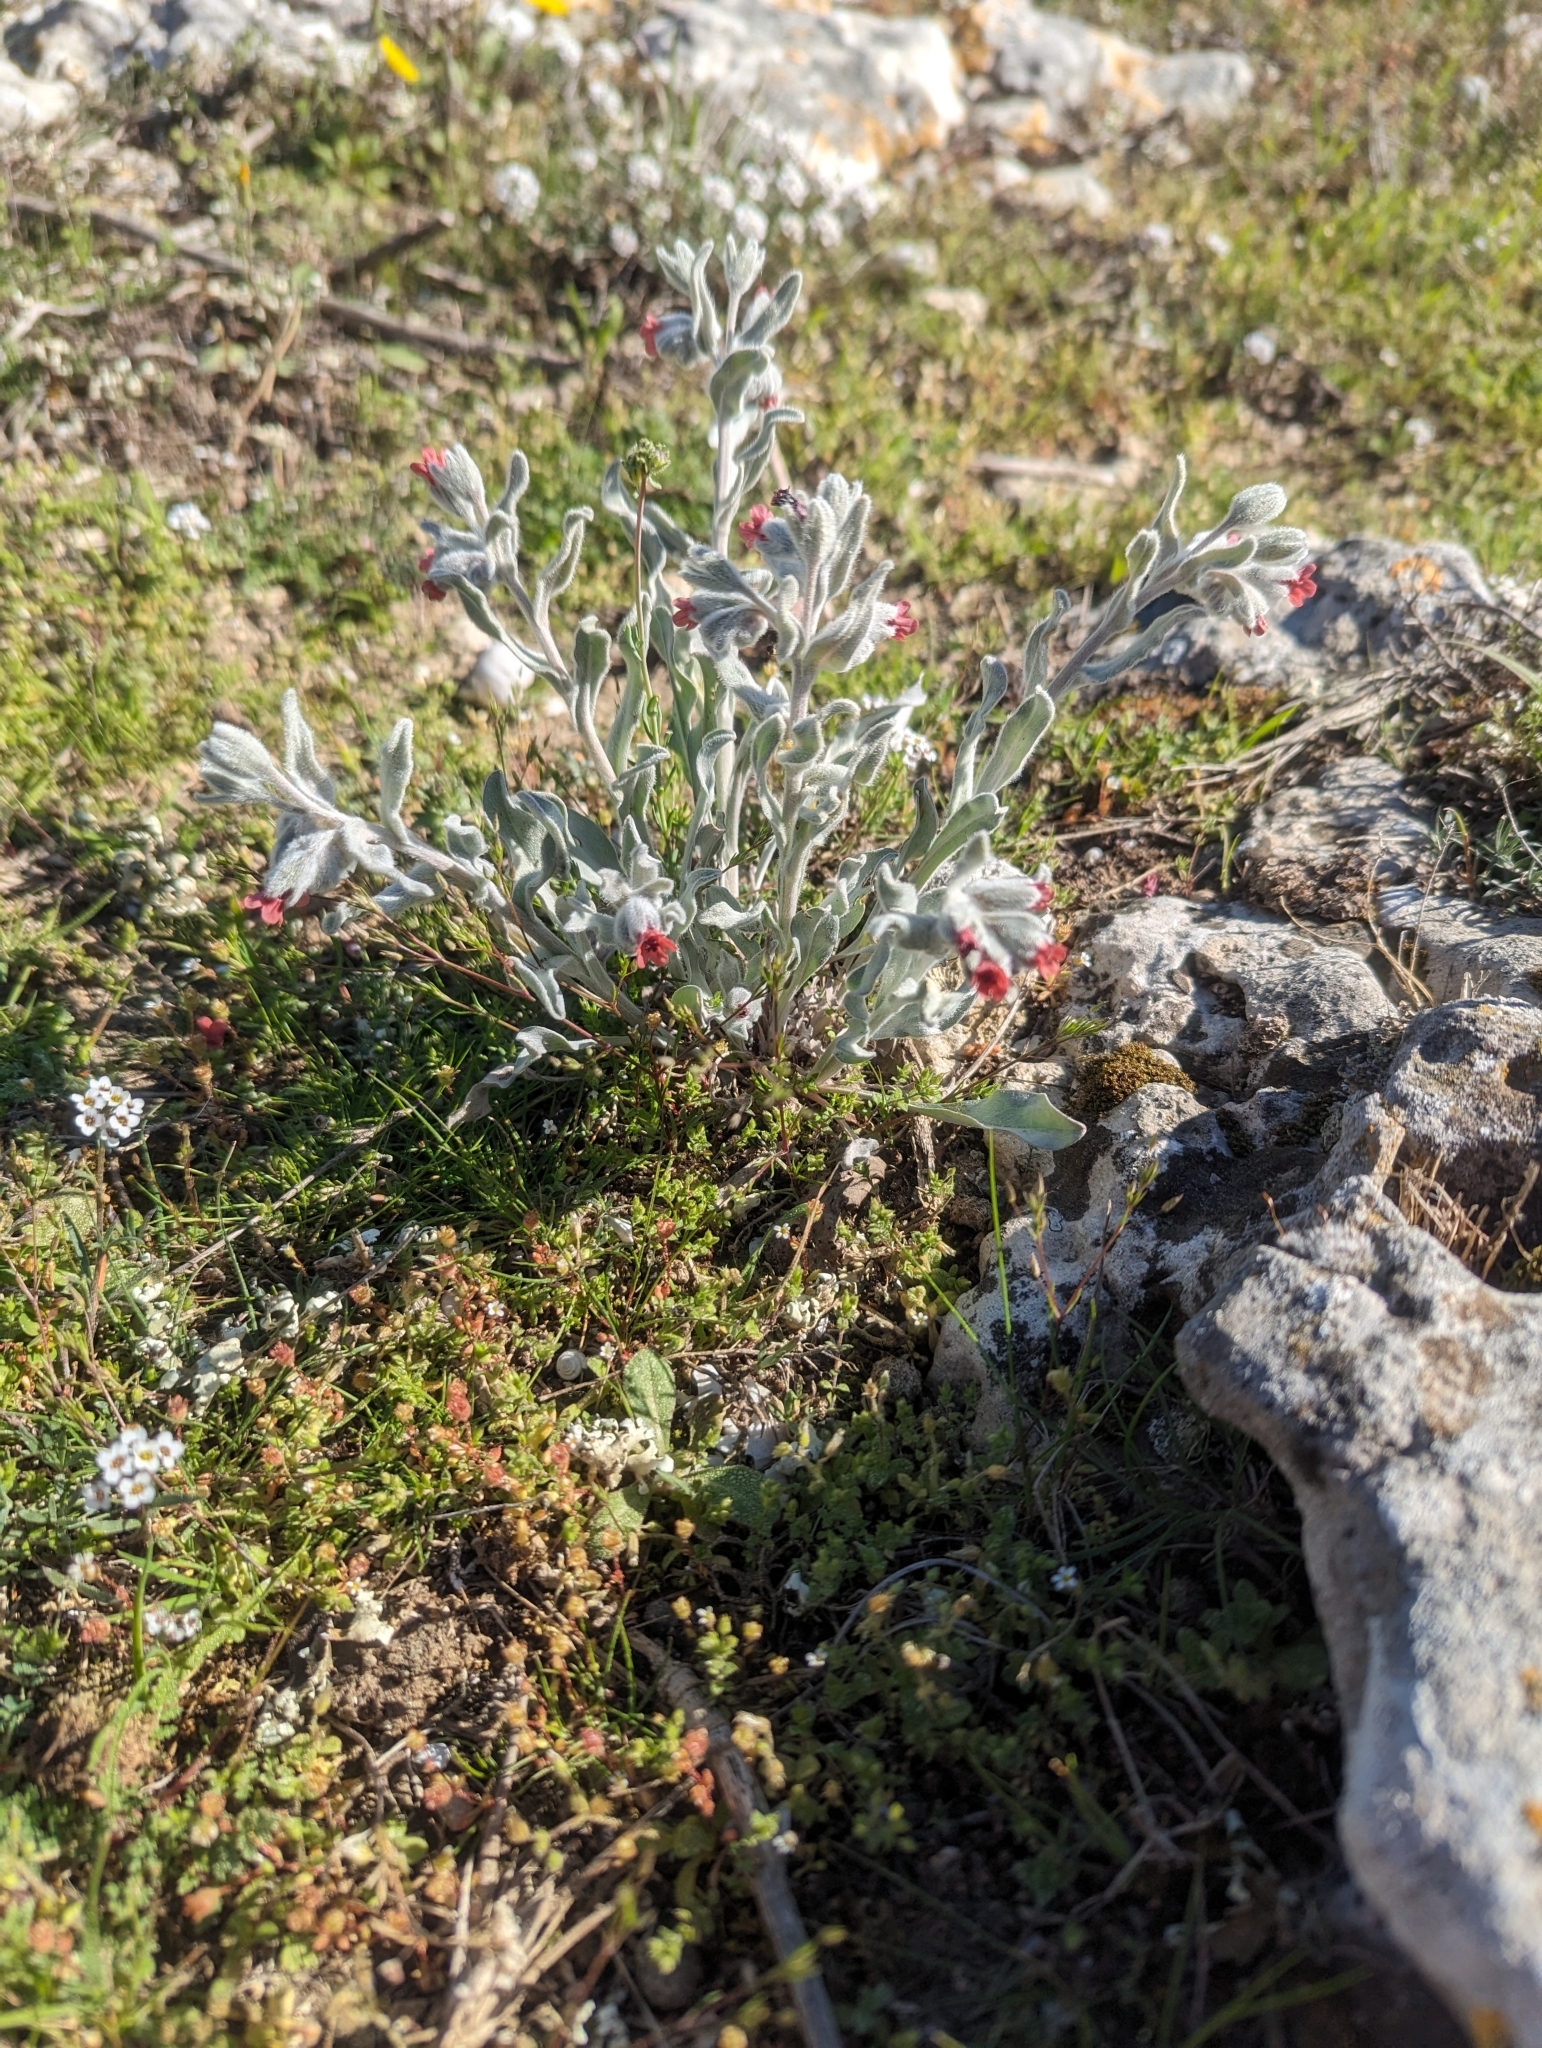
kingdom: Plantae
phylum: Tracheophyta
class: Magnoliopsida
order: Boraginales
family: Boraginaceae
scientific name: Boraginaceae
